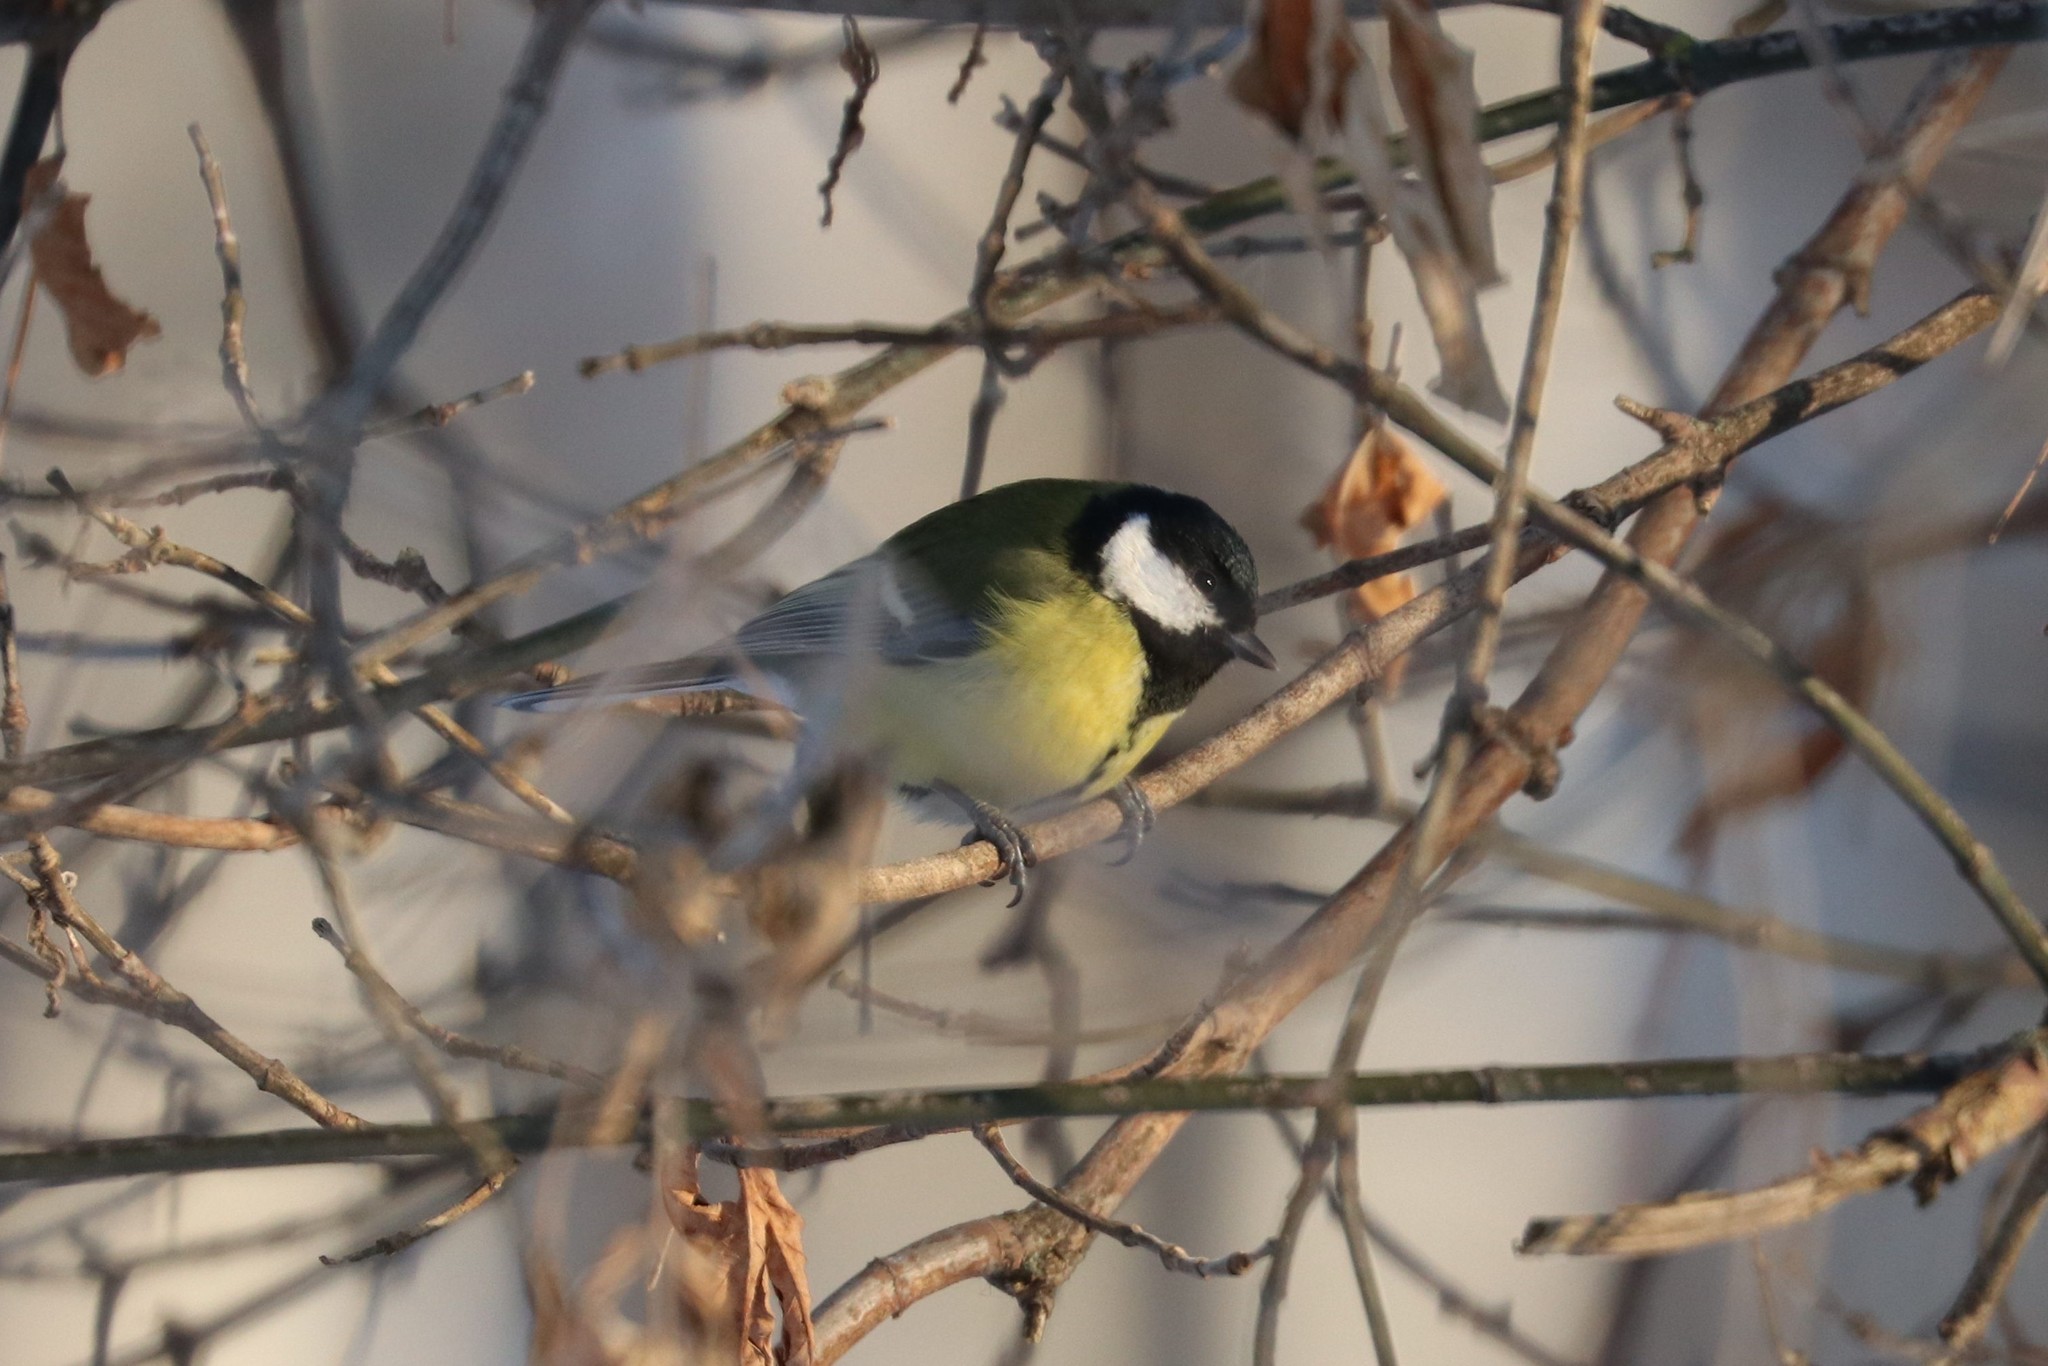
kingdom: Animalia
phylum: Chordata
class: Aves
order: Passeriformes
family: Paridae
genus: Parus
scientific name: Parus major
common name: Great tit
